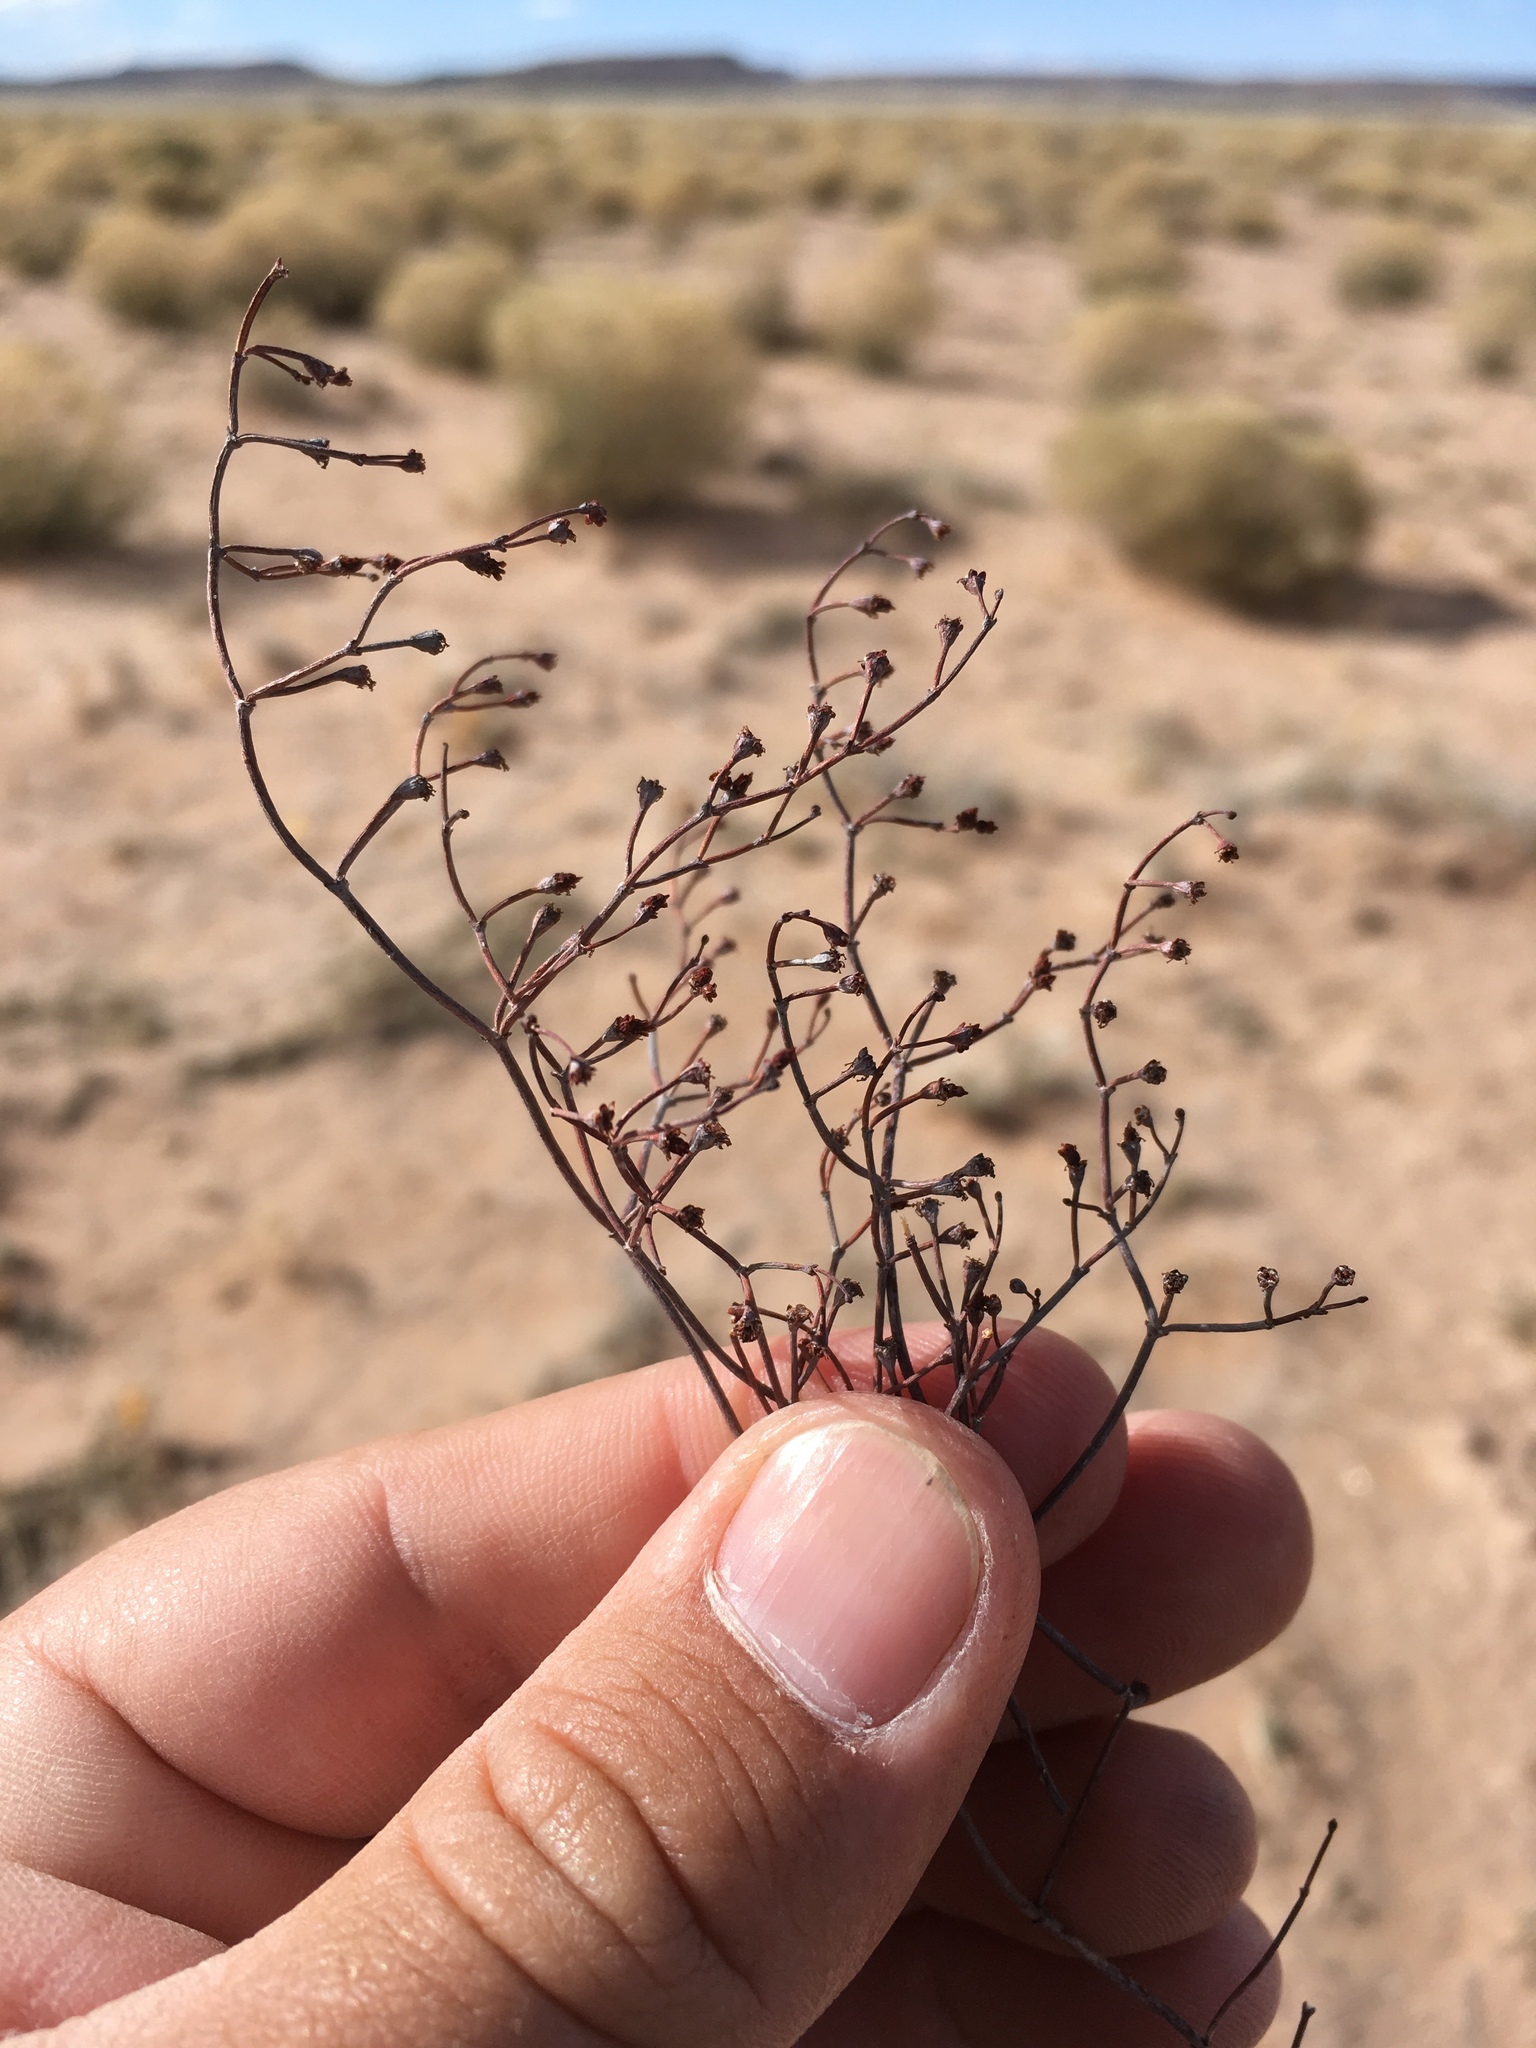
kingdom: Plantae
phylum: Tracheophyta
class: Magnoliopsida
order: Caryophyllales
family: Polygonaceae
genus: Eriogonum
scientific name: Eriogonum rotundifolium
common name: Round-leaf wild buckwheat
